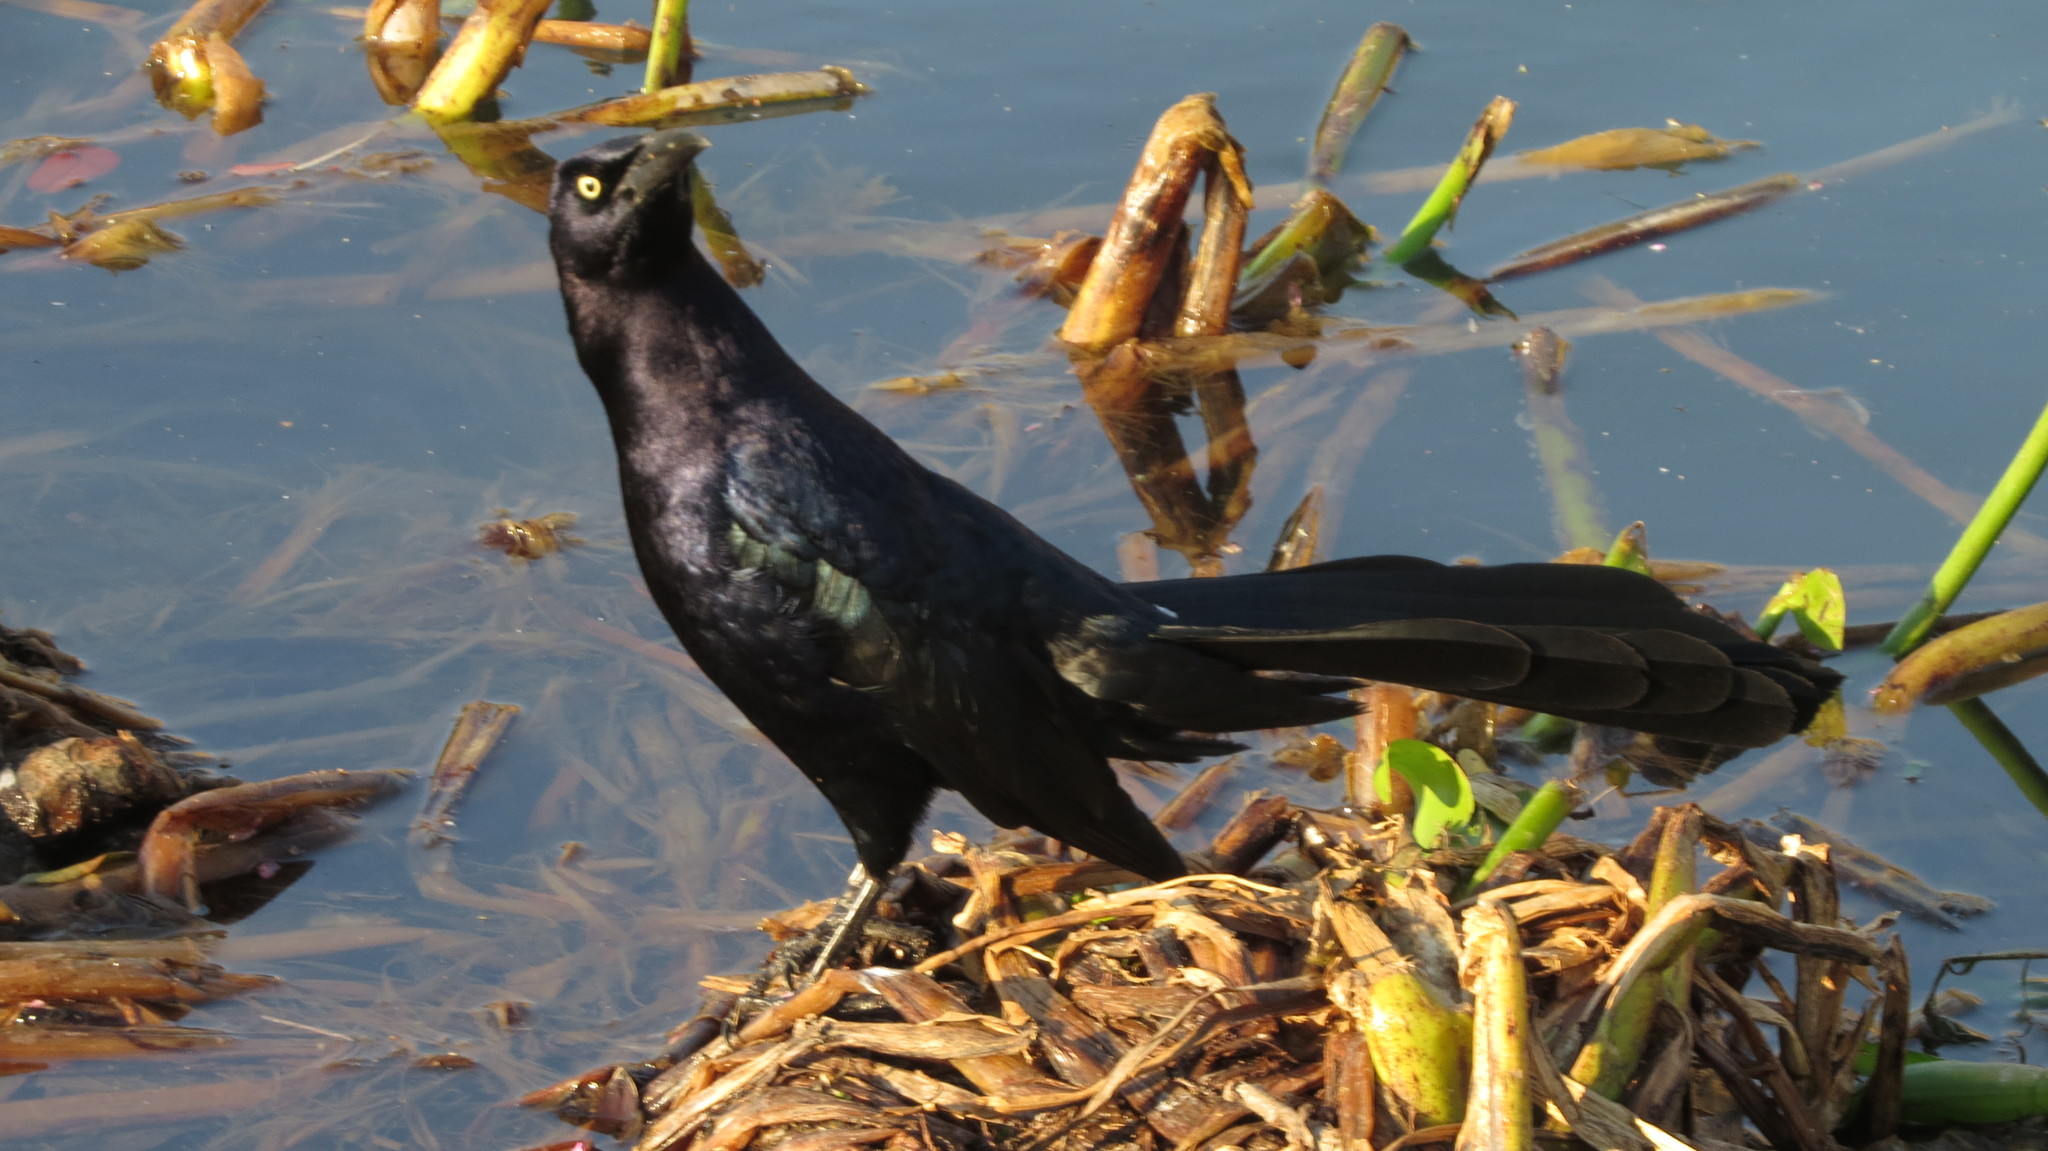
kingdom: Animalia
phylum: Chordata
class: Aves
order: Passeriformes
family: Icteridae
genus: Quiscalus
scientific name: Quiscalus mexicanus
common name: Great-tailed grackle
